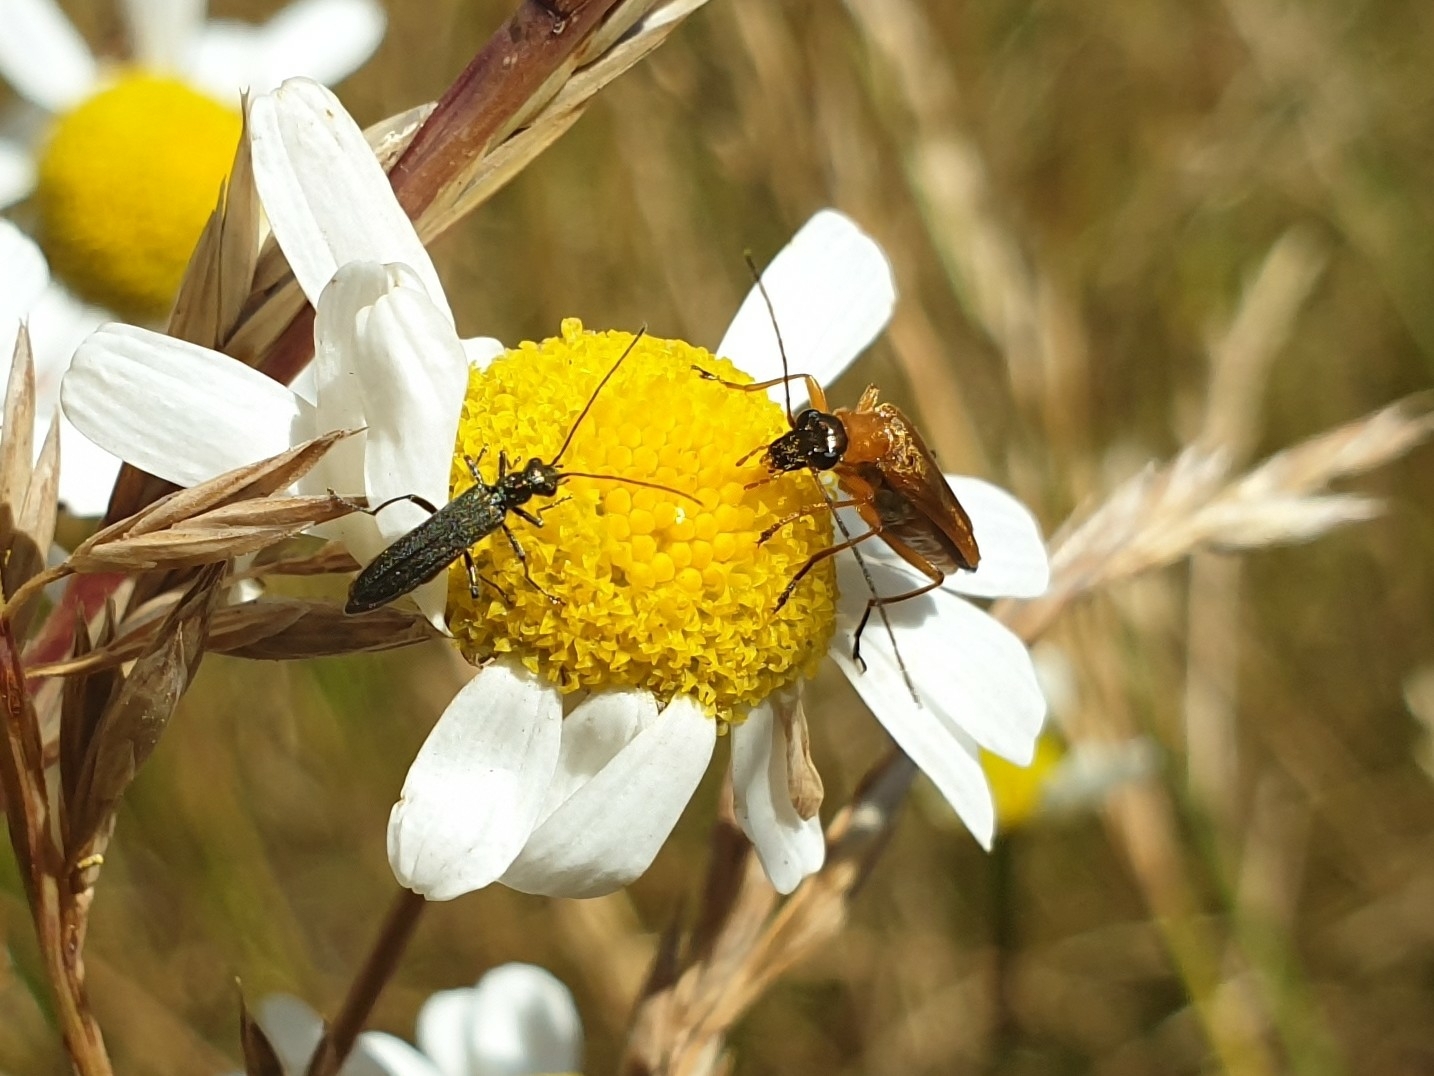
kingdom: Animalia
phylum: Arthropoda
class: Insecta
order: Coleoptera
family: Oedemeridae
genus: Oedemera
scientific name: Oedemera podagrariae
